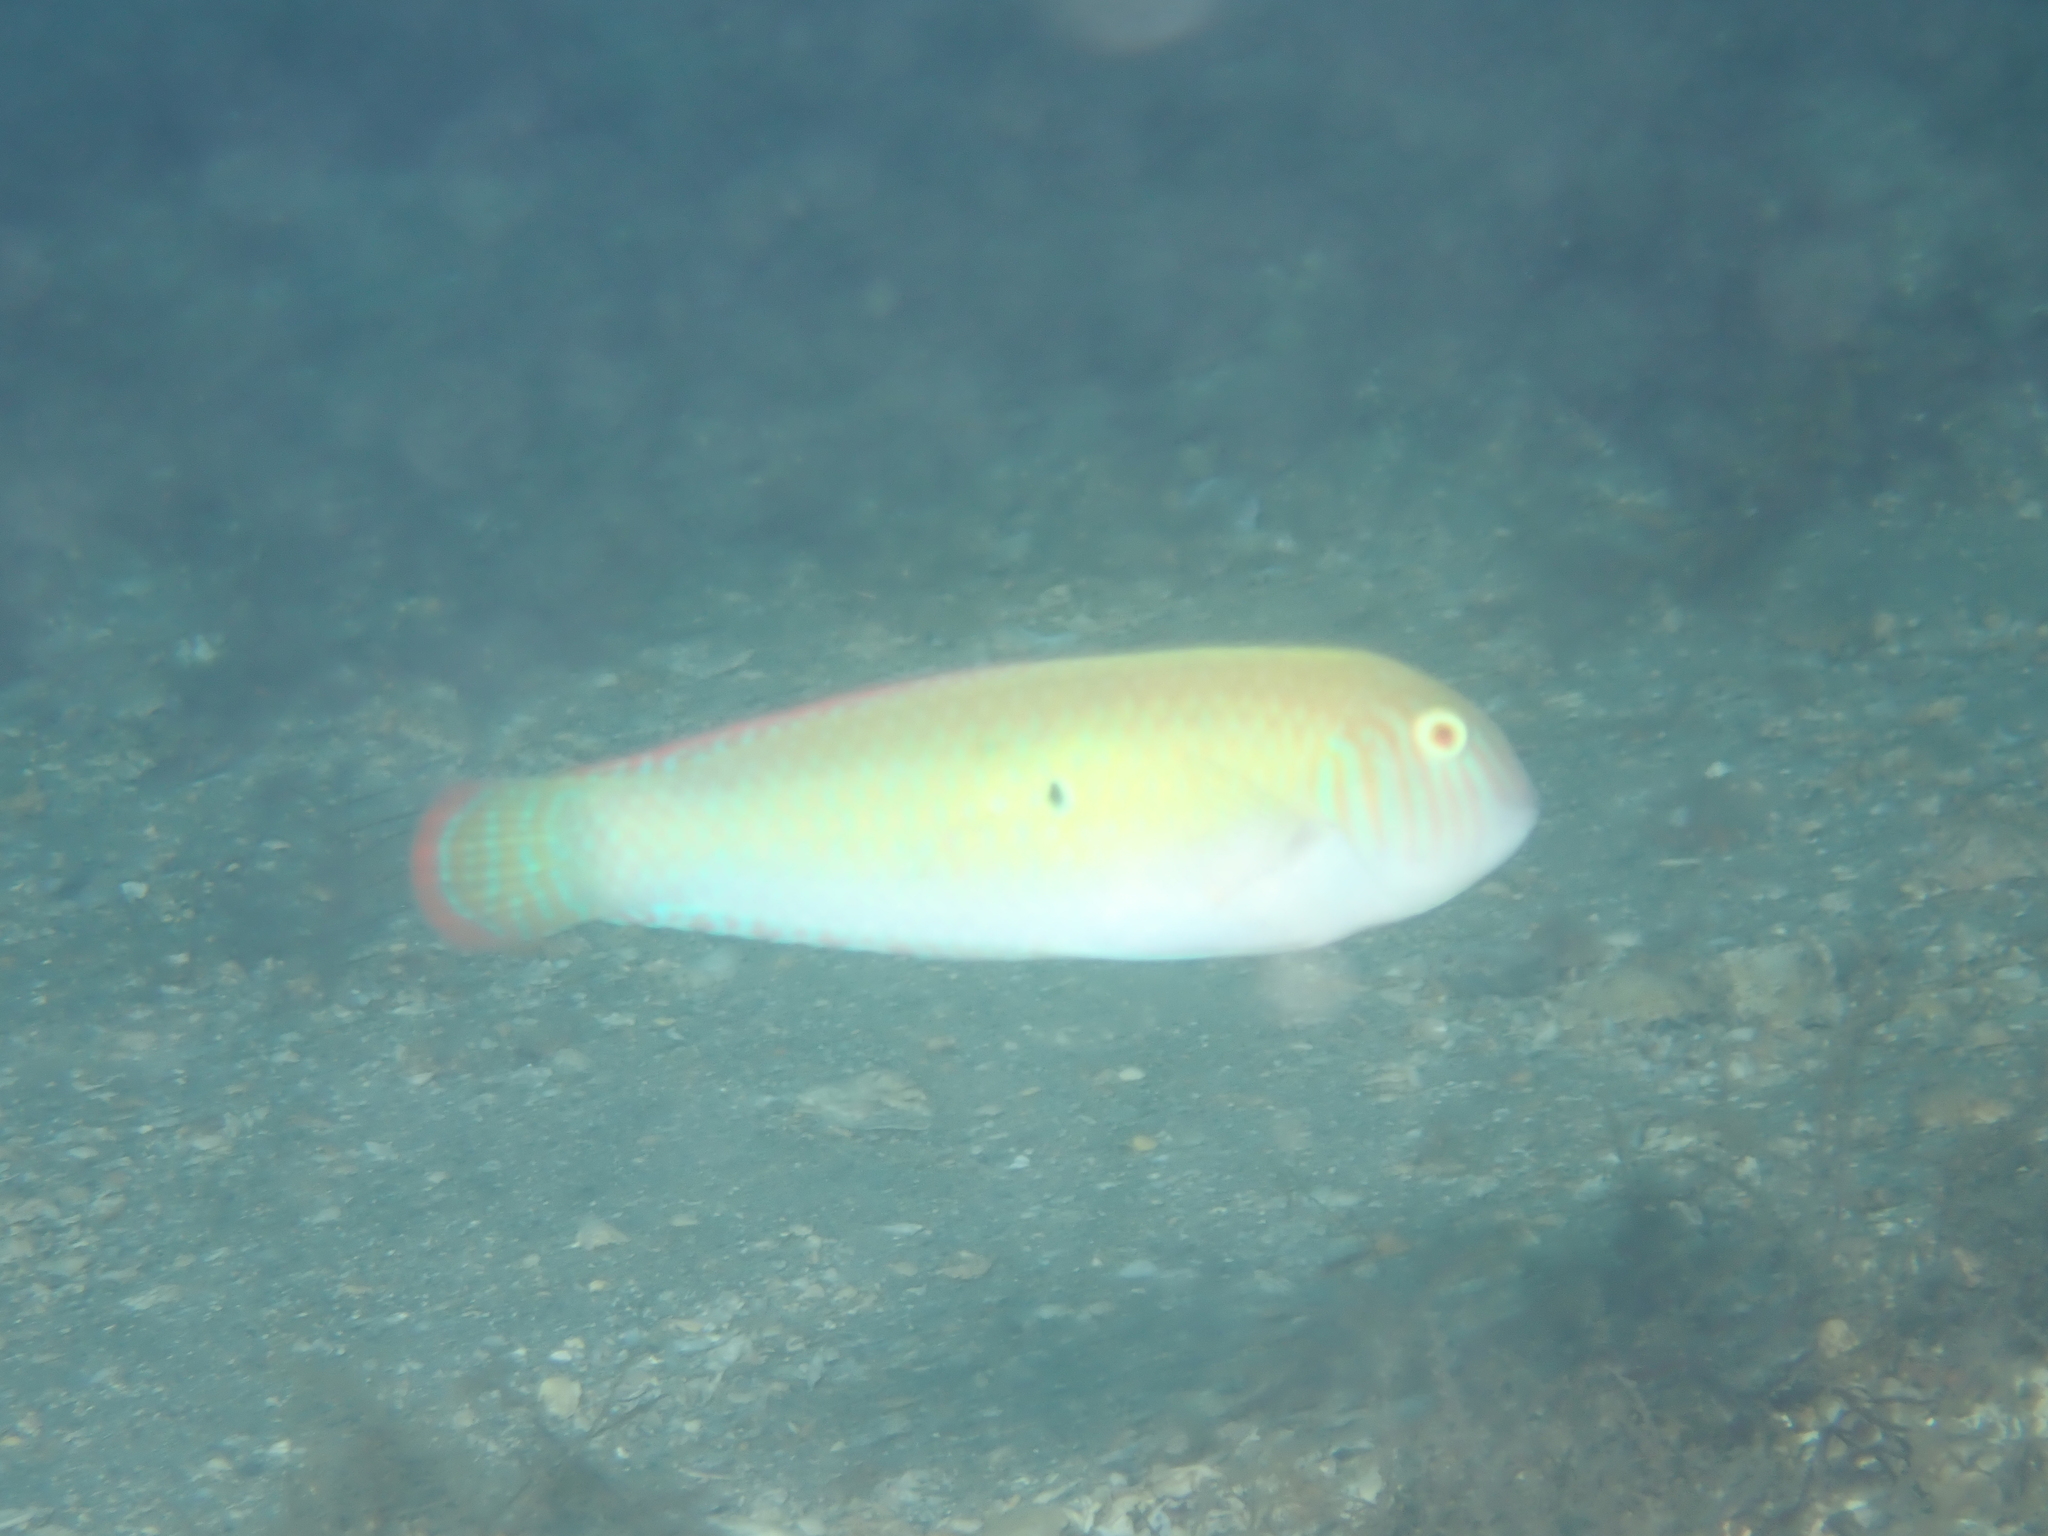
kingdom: Animalia
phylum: Chordata
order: Perciformes
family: Labridae
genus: Xyrichtys
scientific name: Xyrichtys splendens
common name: Green razorfish
